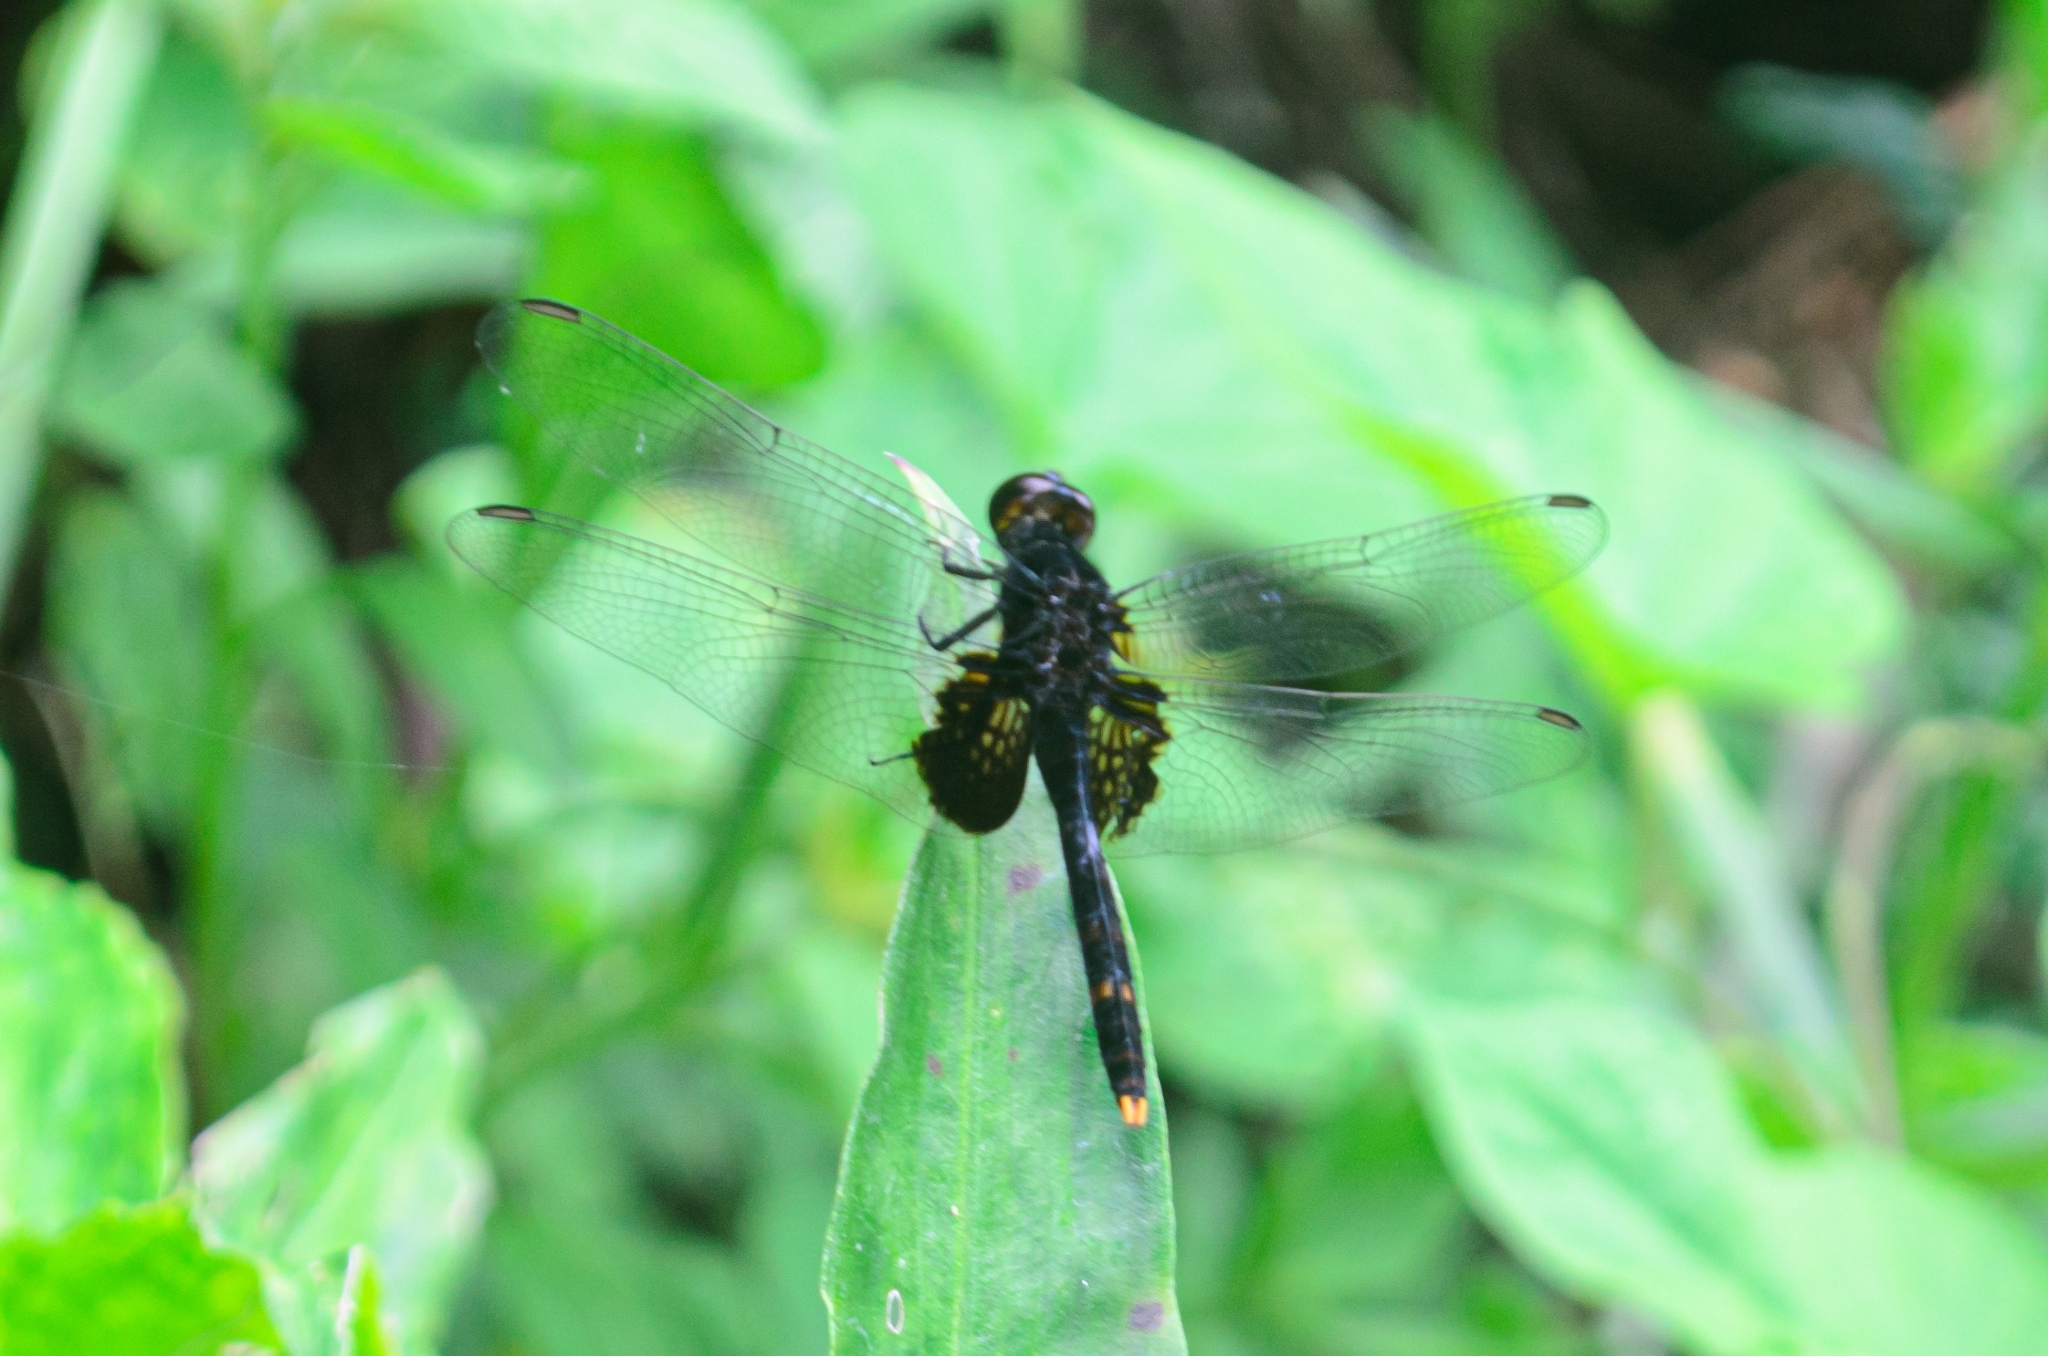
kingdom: Animalia
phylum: Arthropoda
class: Insecta
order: Odonata
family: Libellulidae
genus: Erythemis
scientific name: Erythemis attala
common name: Black pondhawk
